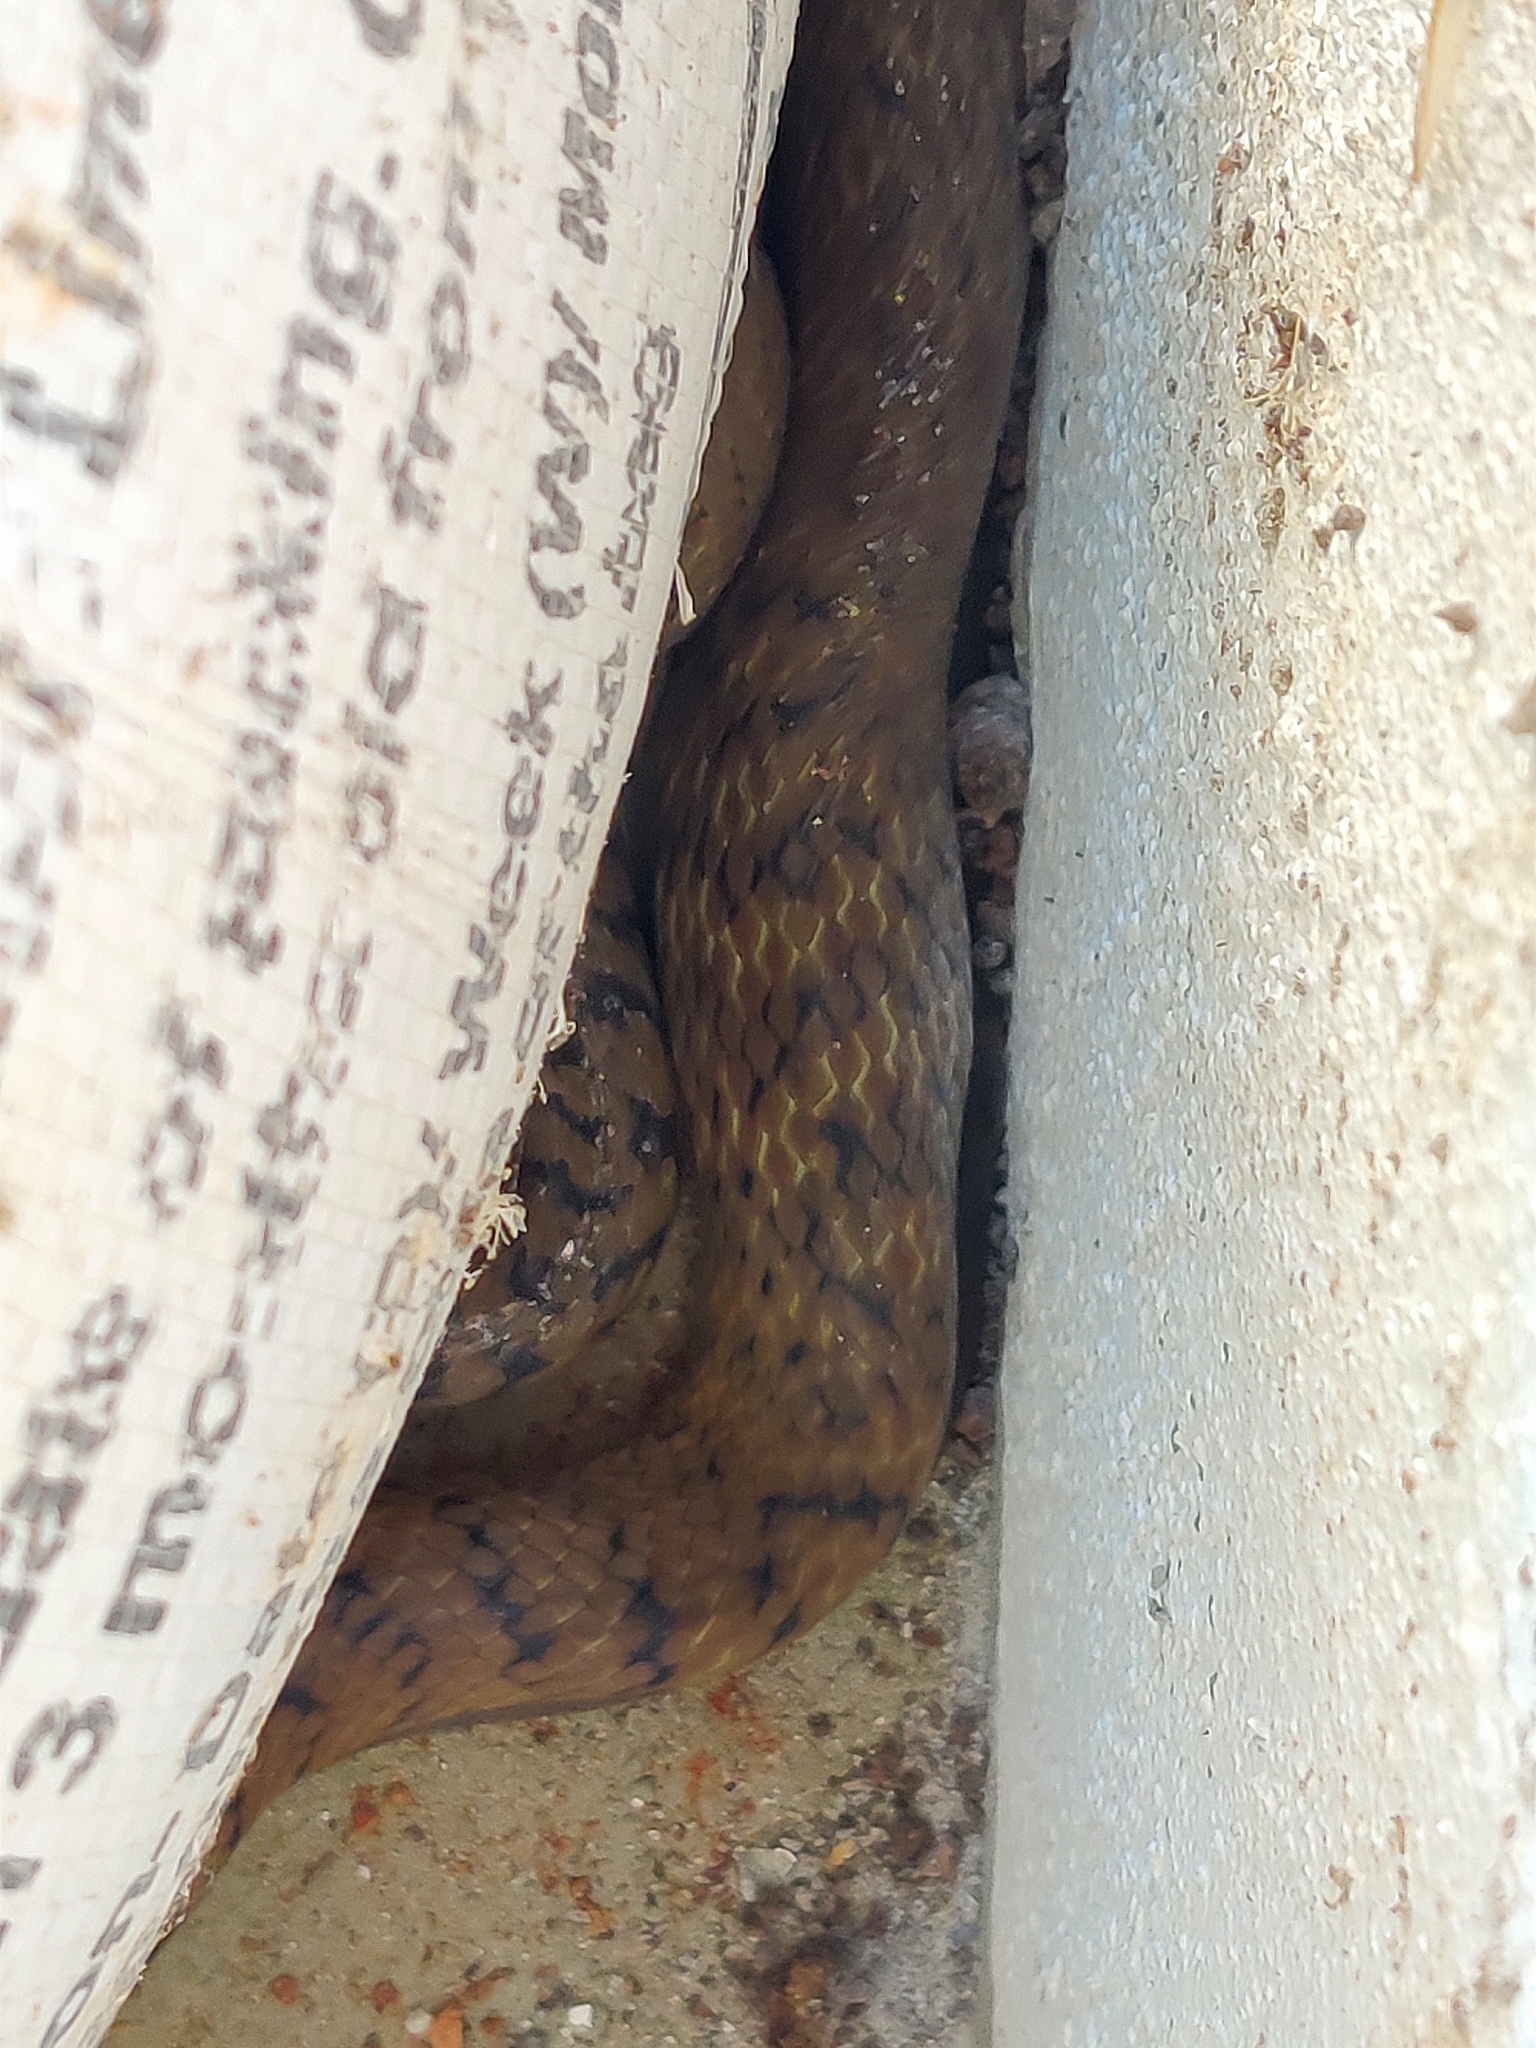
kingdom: Animalia
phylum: Chordata
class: Squamata
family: Colubridae
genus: Ptyas
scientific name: Ptyas mucosa
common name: Oriental ratsnake
